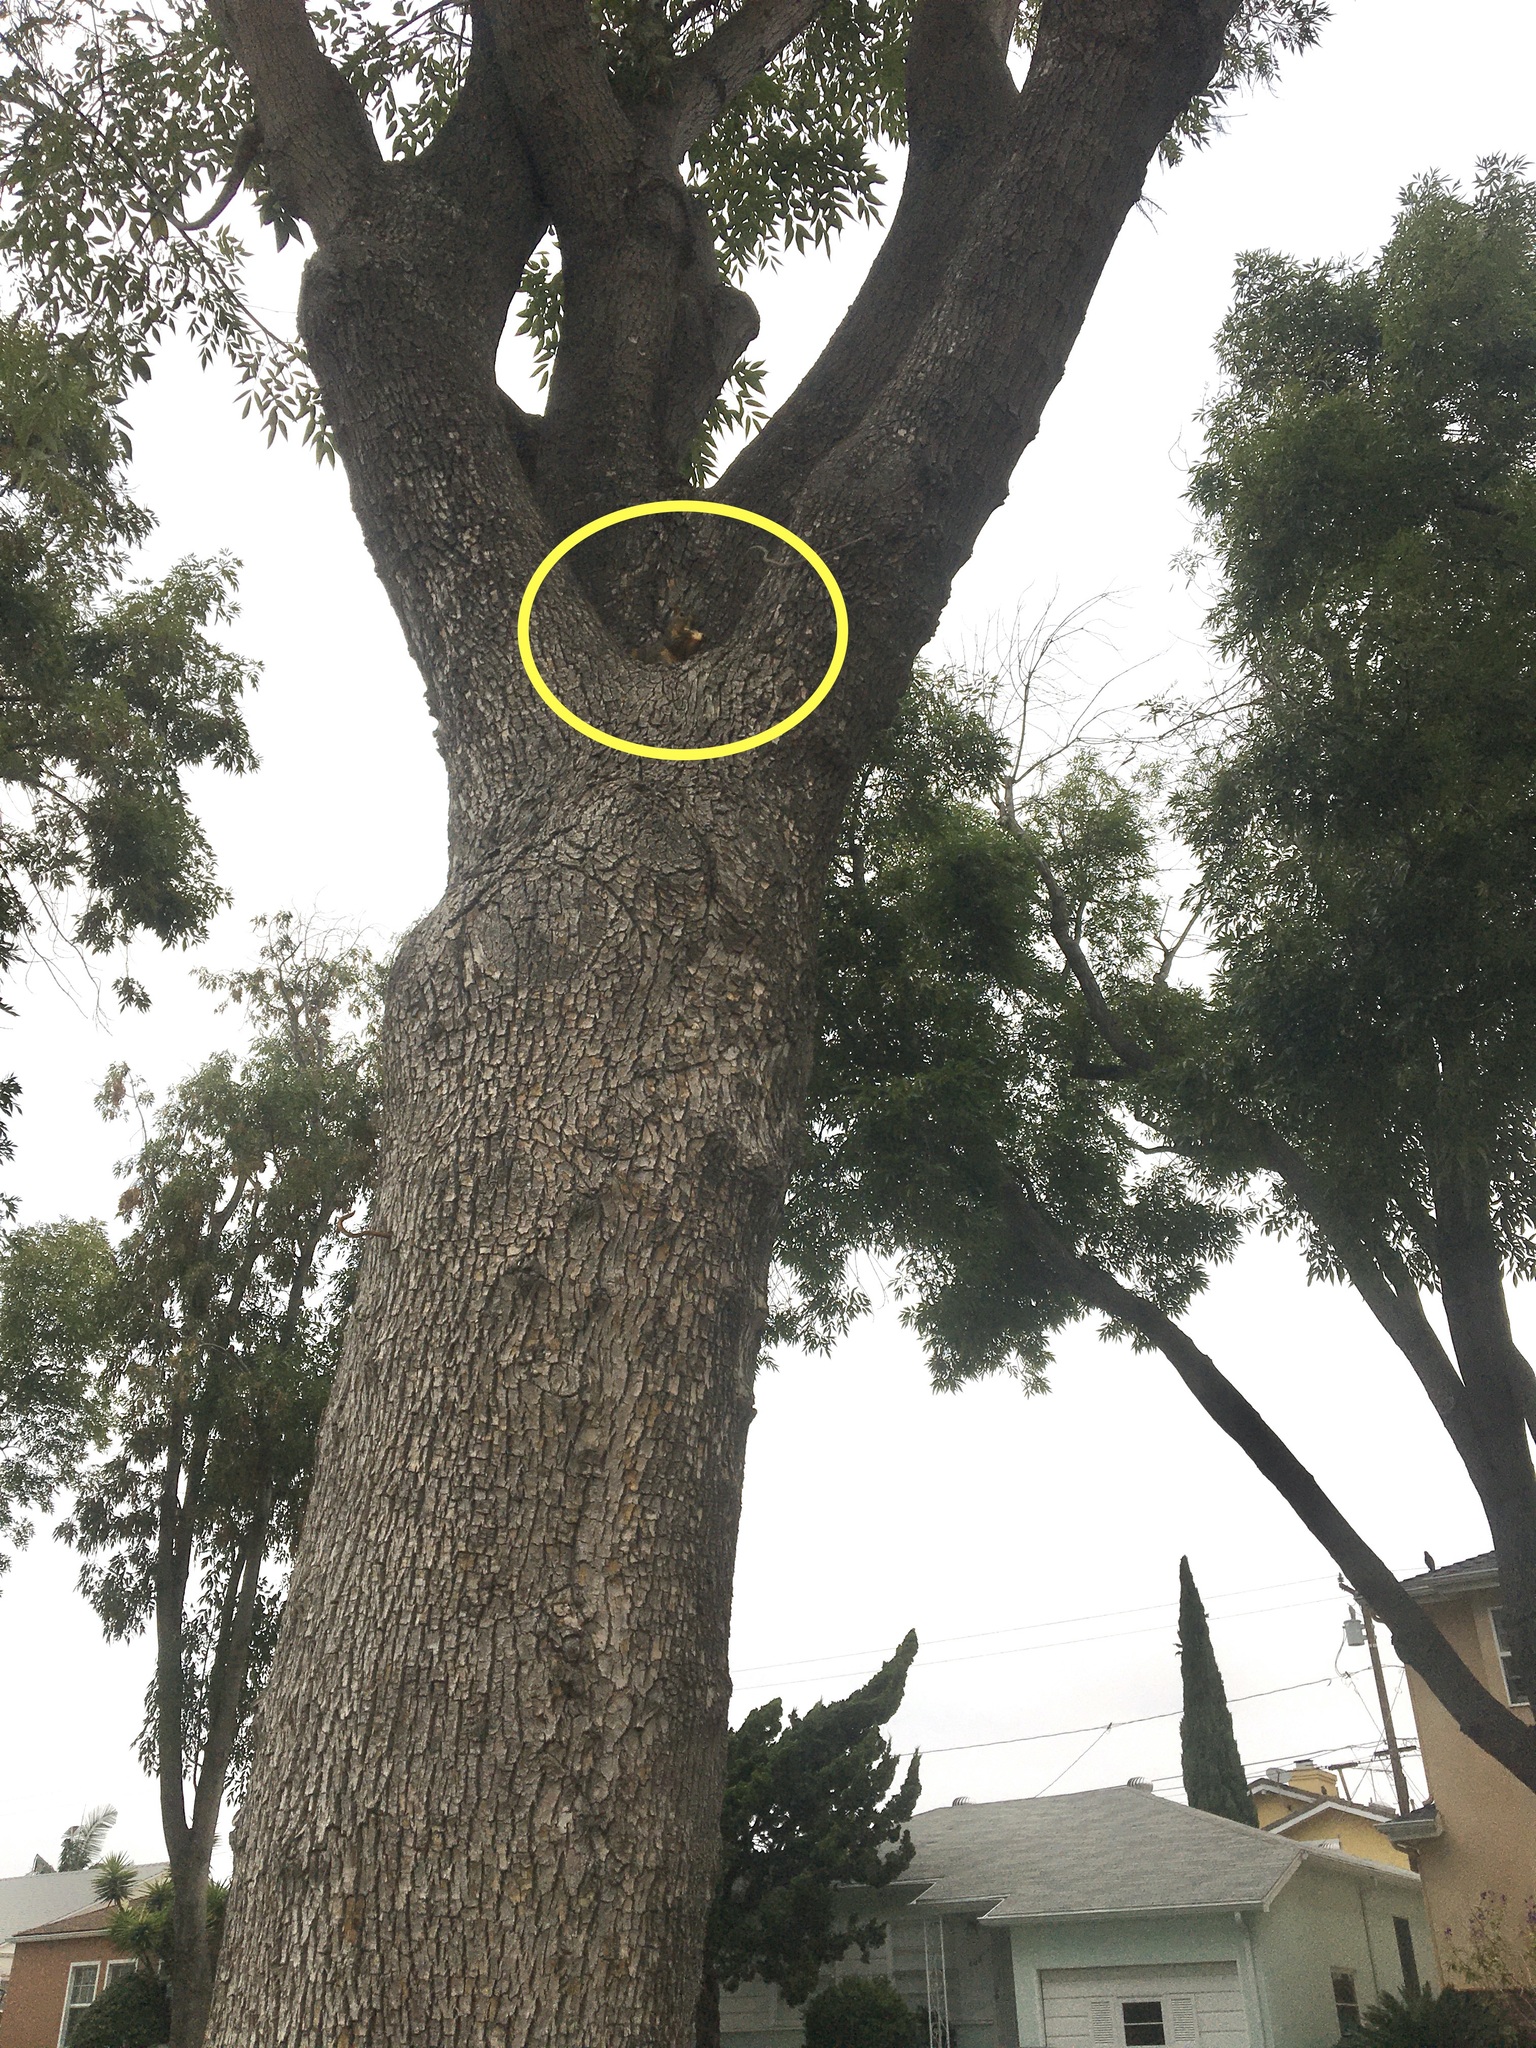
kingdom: Animalia
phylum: Chordata
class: Mammalia
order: Rodentia
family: Sciuridae
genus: Sciurus
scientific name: Sciurus niger
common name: Fox squirrel
